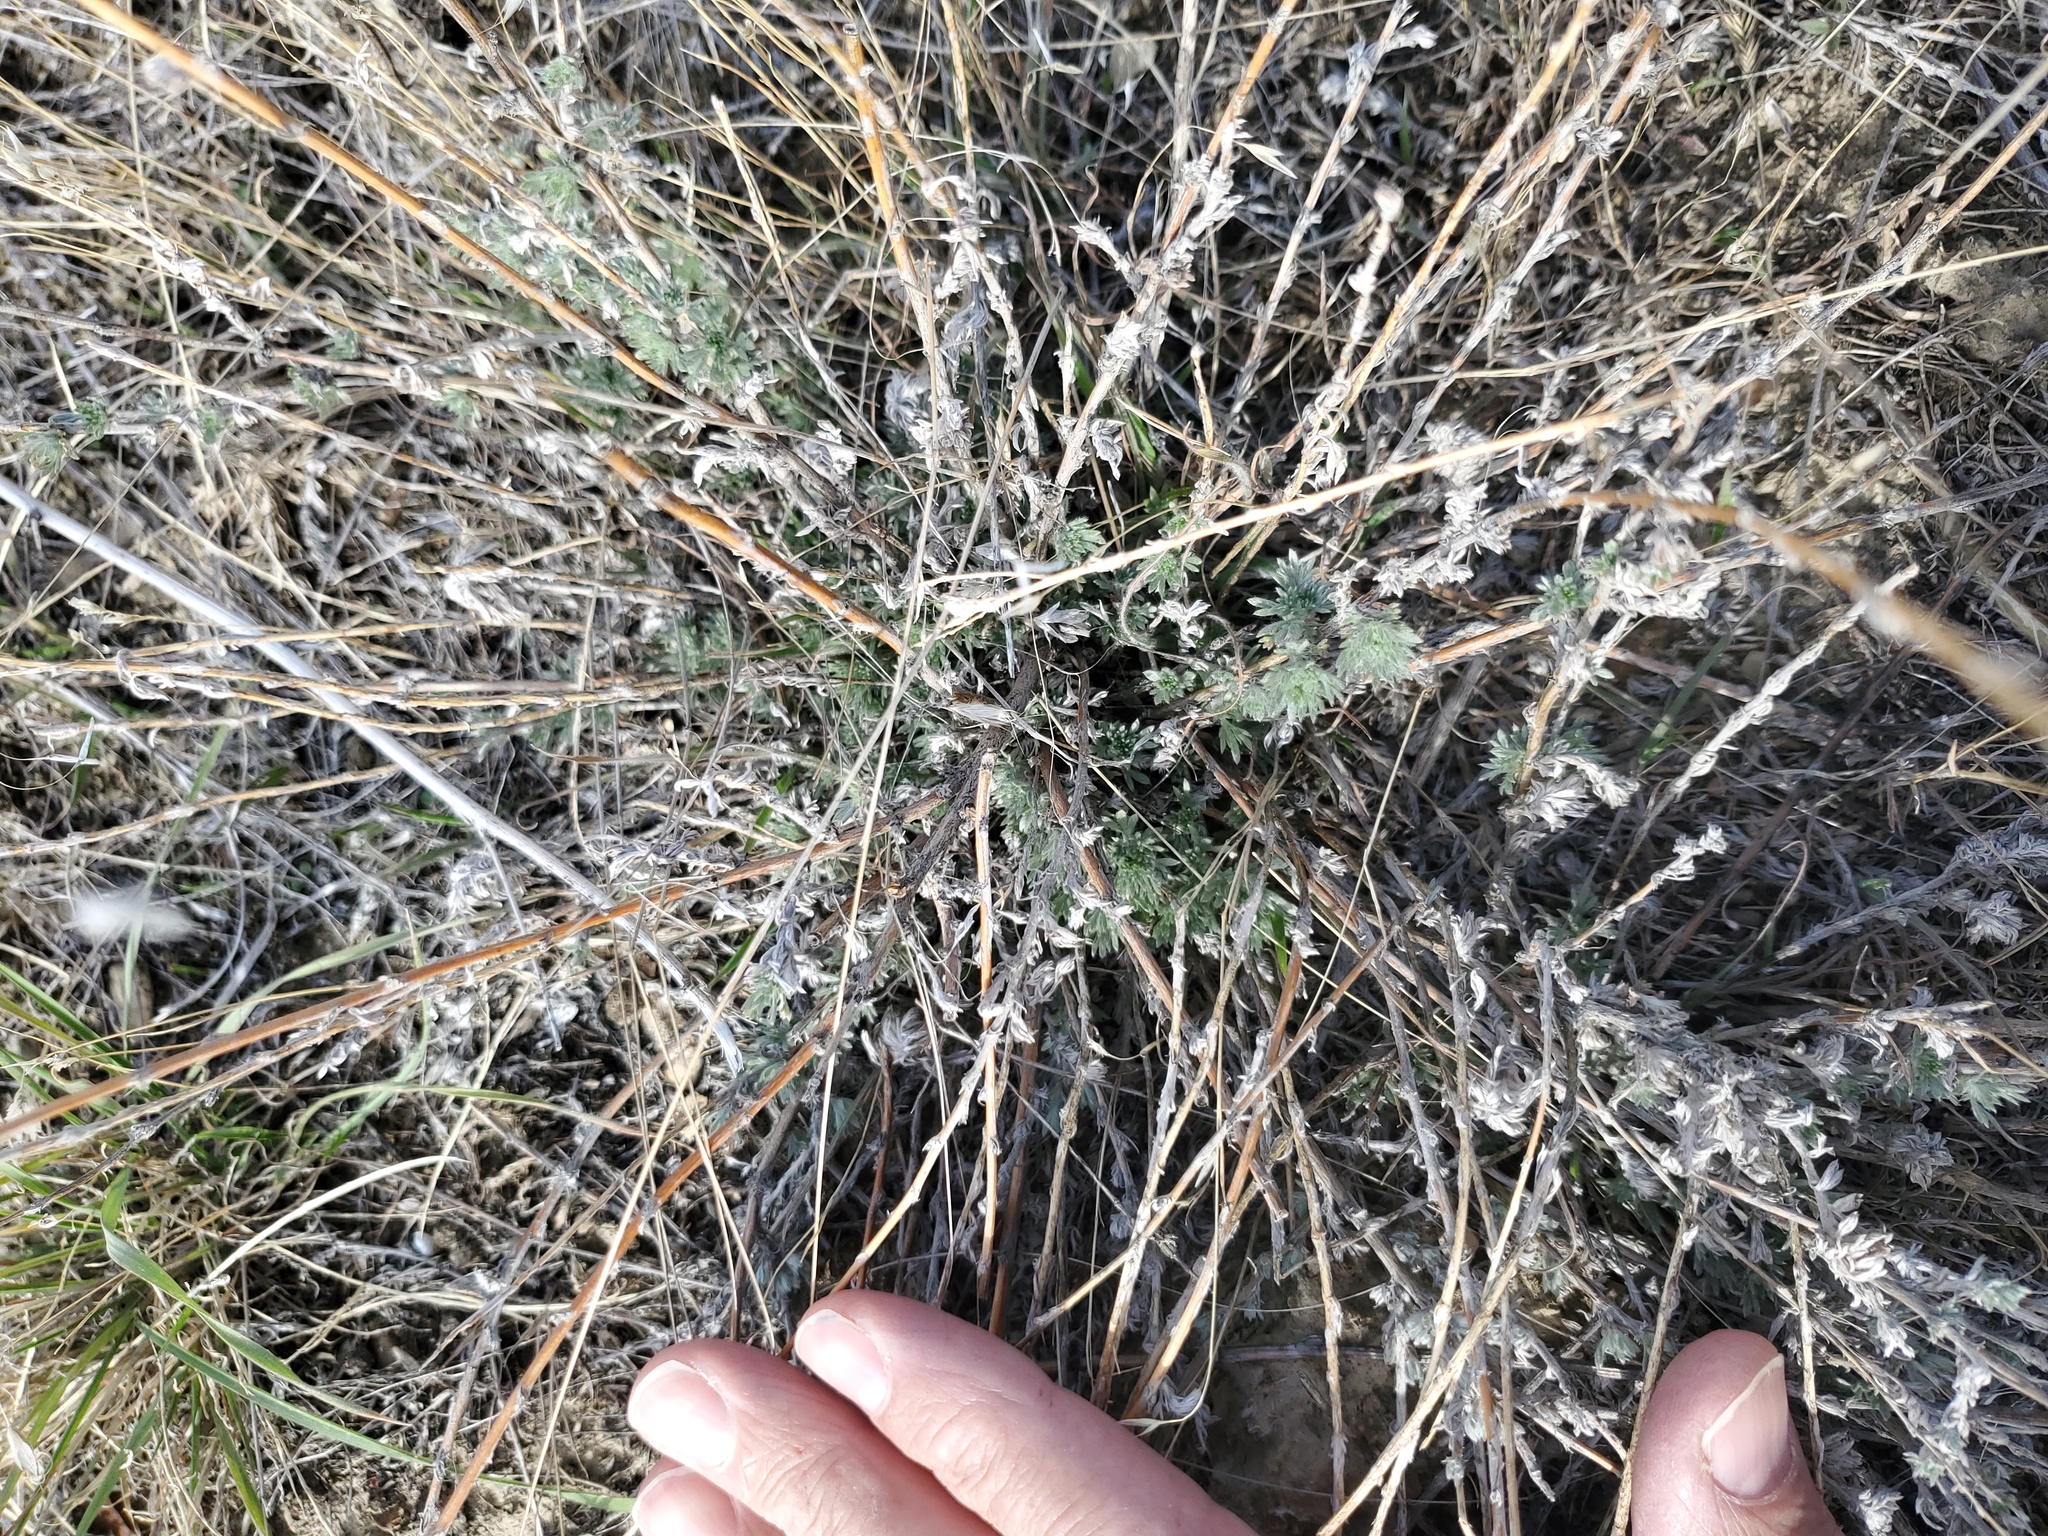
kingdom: Plantae
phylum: Tracheophyta
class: Magnoliopsida
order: Asterales
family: Asteraceae
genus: Artemisia
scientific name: Artemisia frigida
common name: Prairie sagewort
